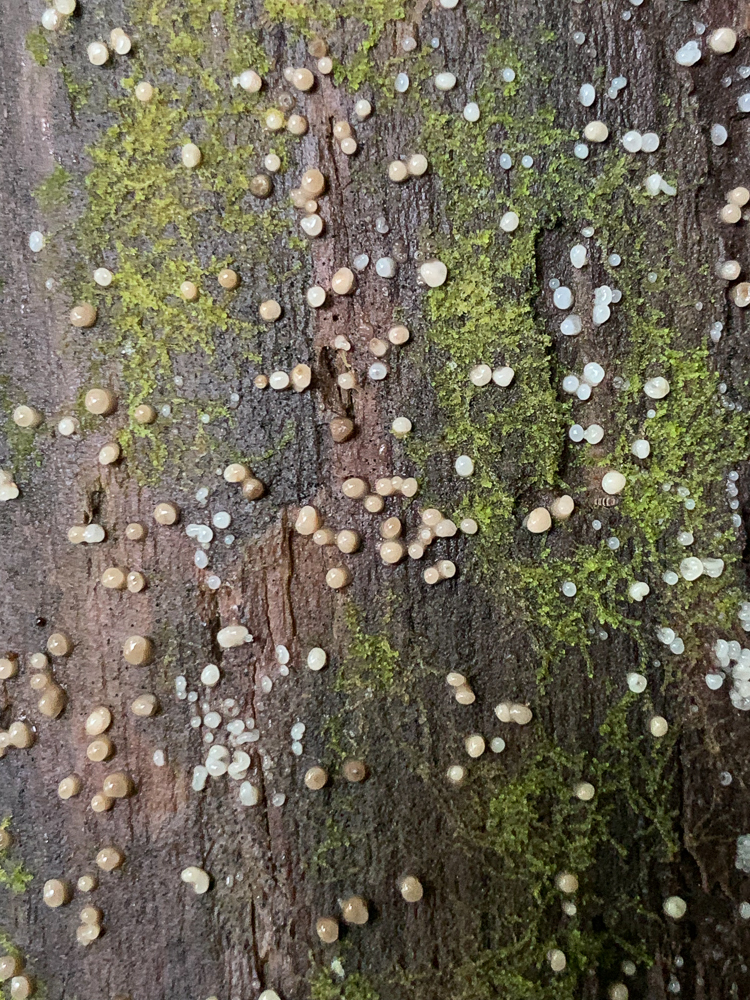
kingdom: Fungi
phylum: Basidiomycota
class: Atractiellomycetes
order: Atractiellales
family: Phleogenaceae
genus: Helicogloea
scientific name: Helicogloea compressa
